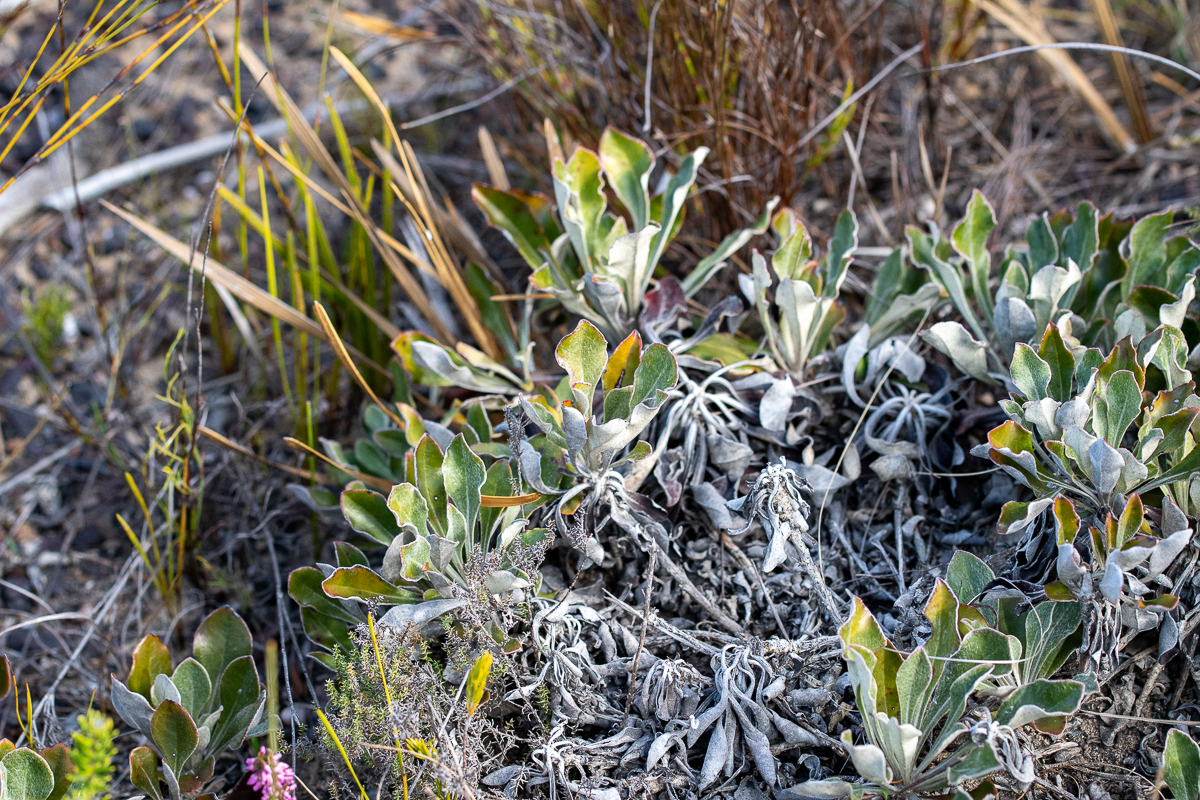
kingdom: Plantae
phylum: Tracheophyta
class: Magnoliopsida
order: Asterales
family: Asteraceae
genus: Osteospermum
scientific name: Osteospermum tomentosum
